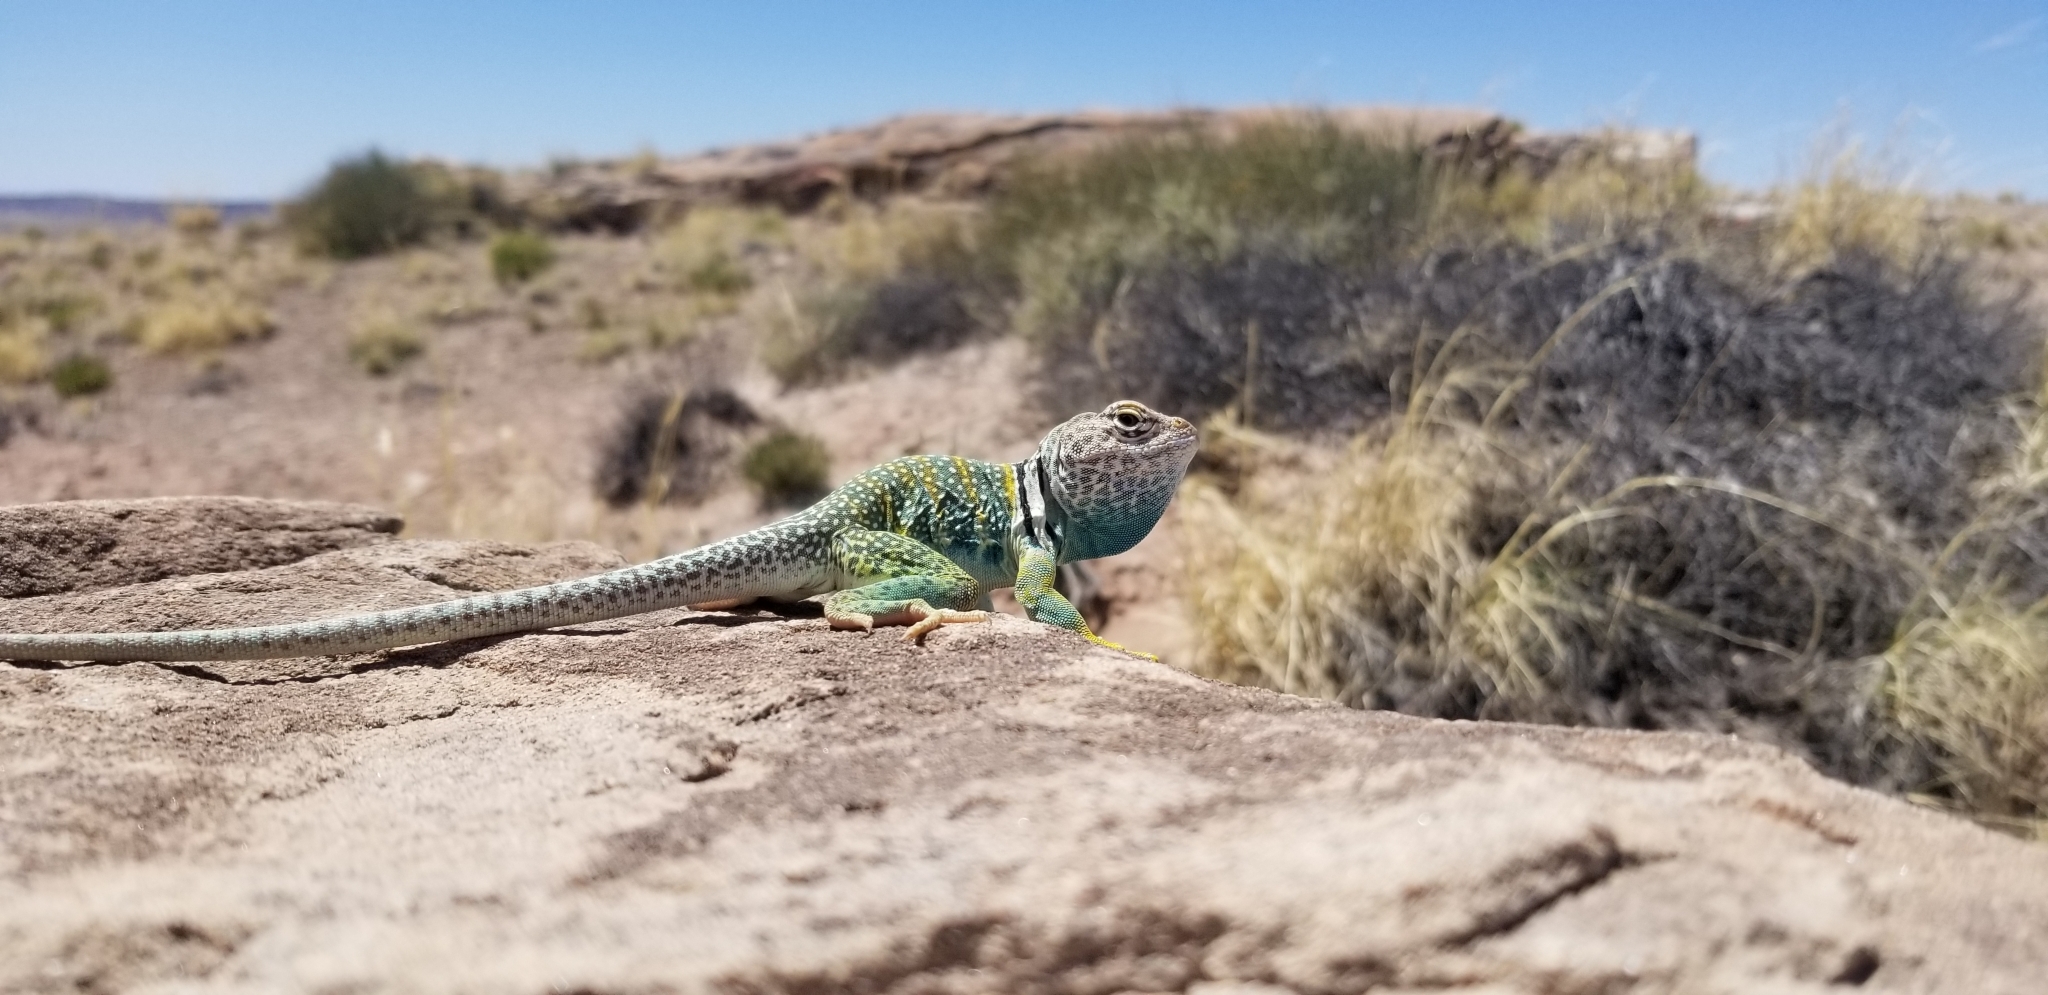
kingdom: Animalia
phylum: Chordata
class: Squamata
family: Crotaphytidae
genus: Crotaphytus
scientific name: Crotaphytus collaris
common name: Collared lizard
